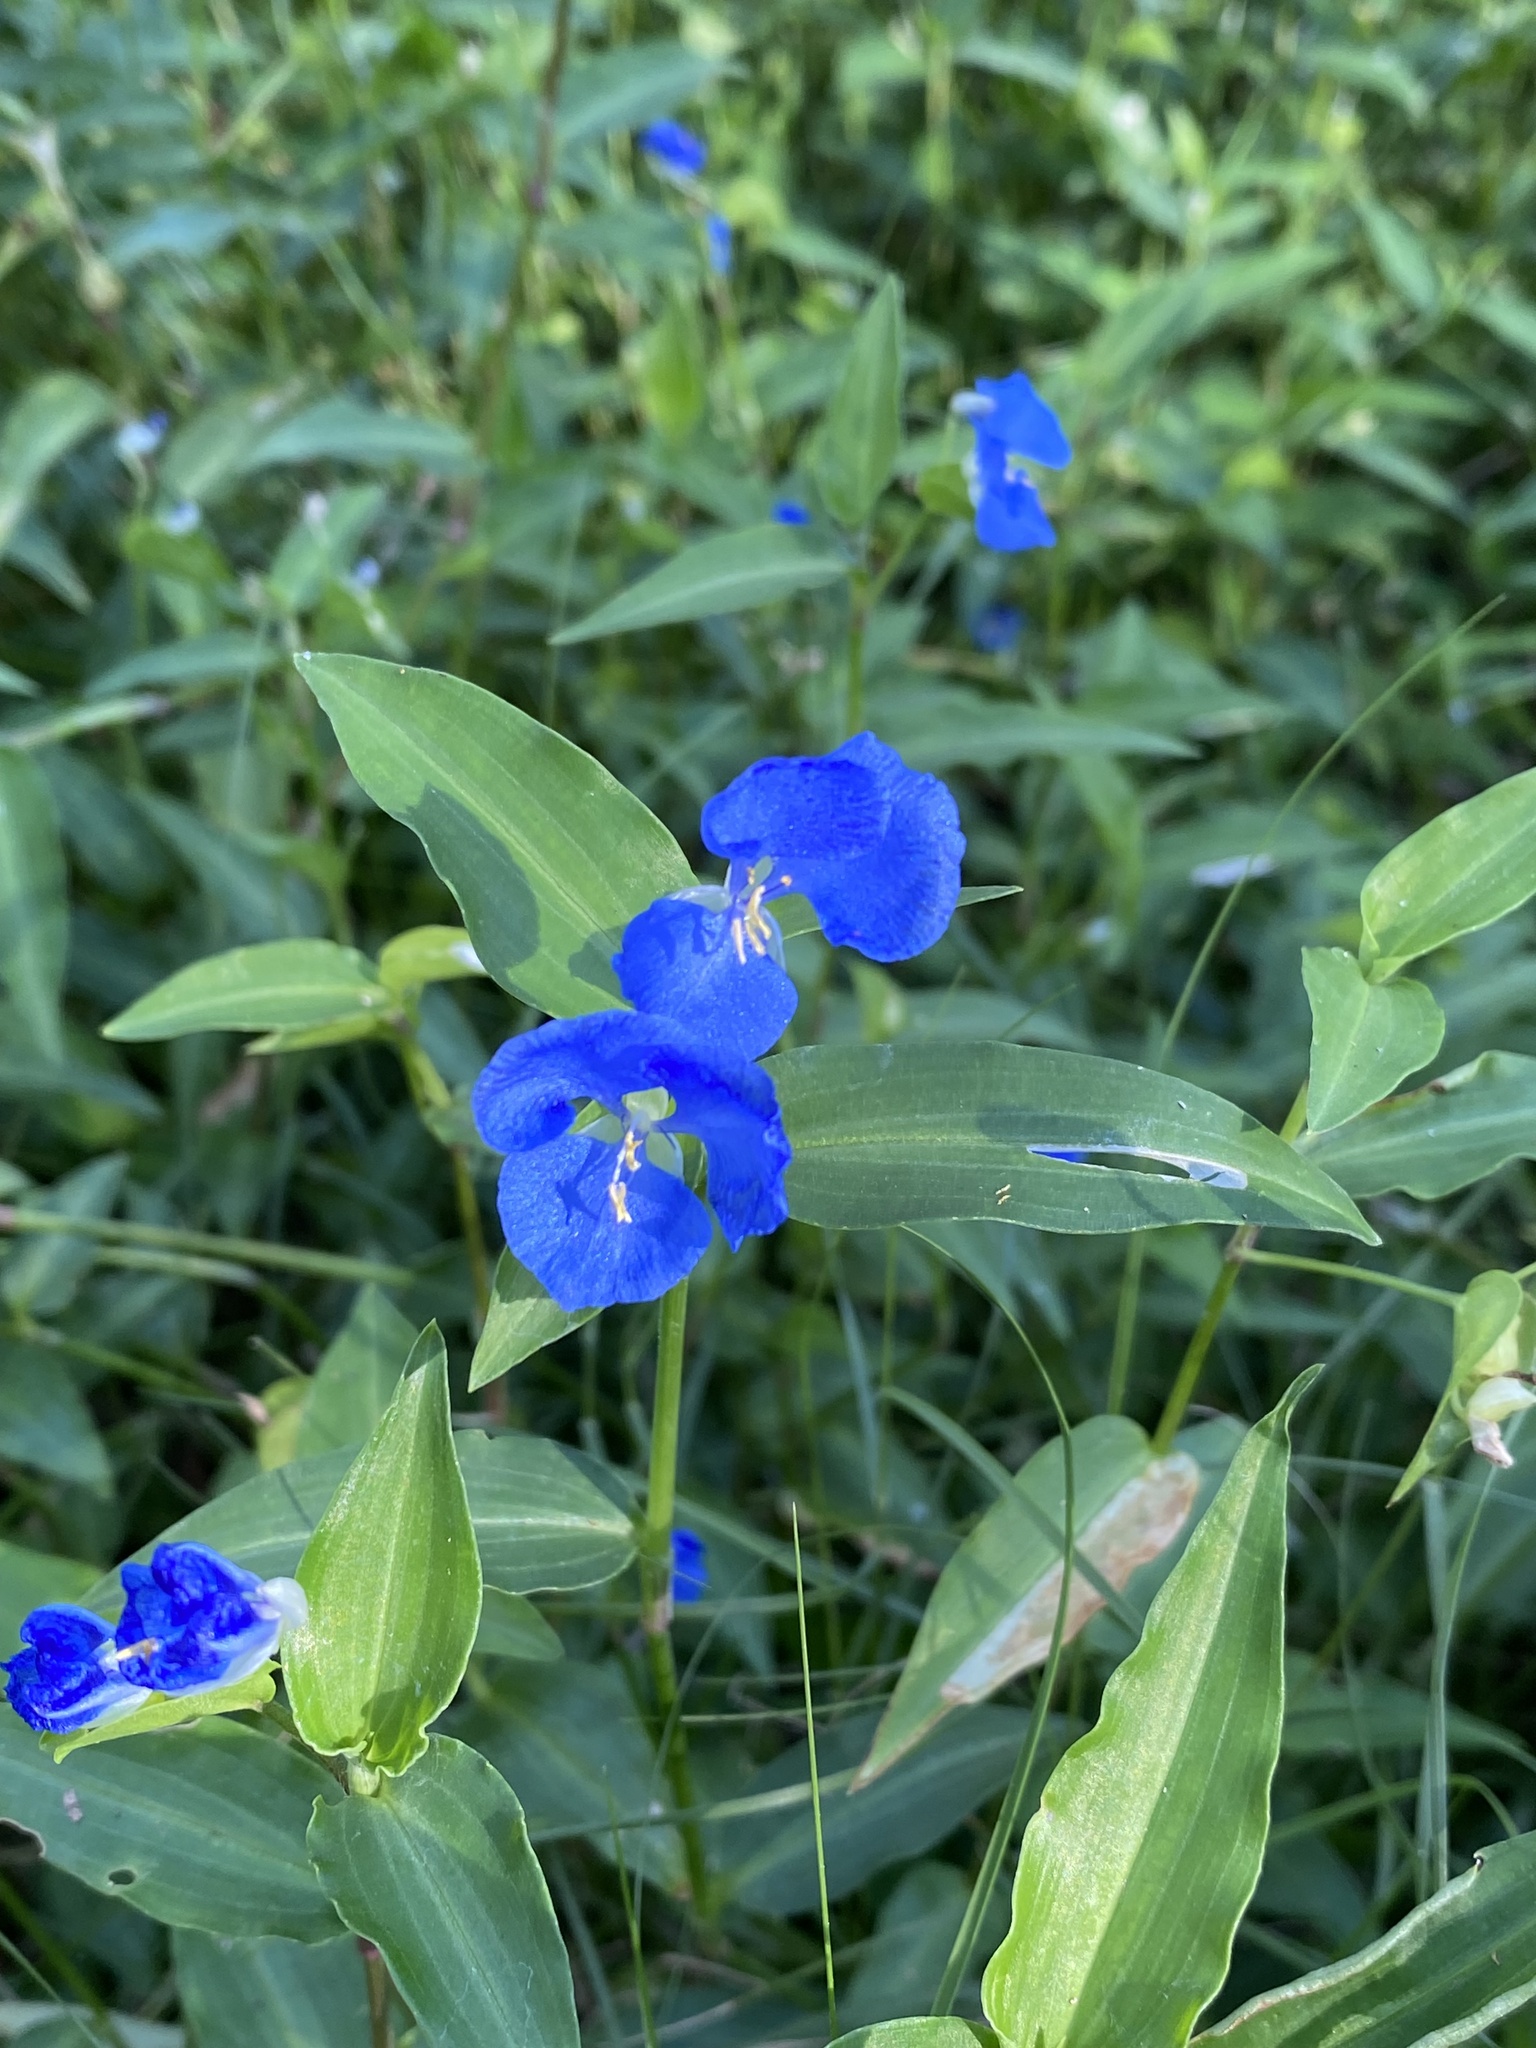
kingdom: Plantae
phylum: Tracheophyta
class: Liliopsida
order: Commelinales
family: Commelinaceae
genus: Commelina
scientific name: Commelina cyanea
